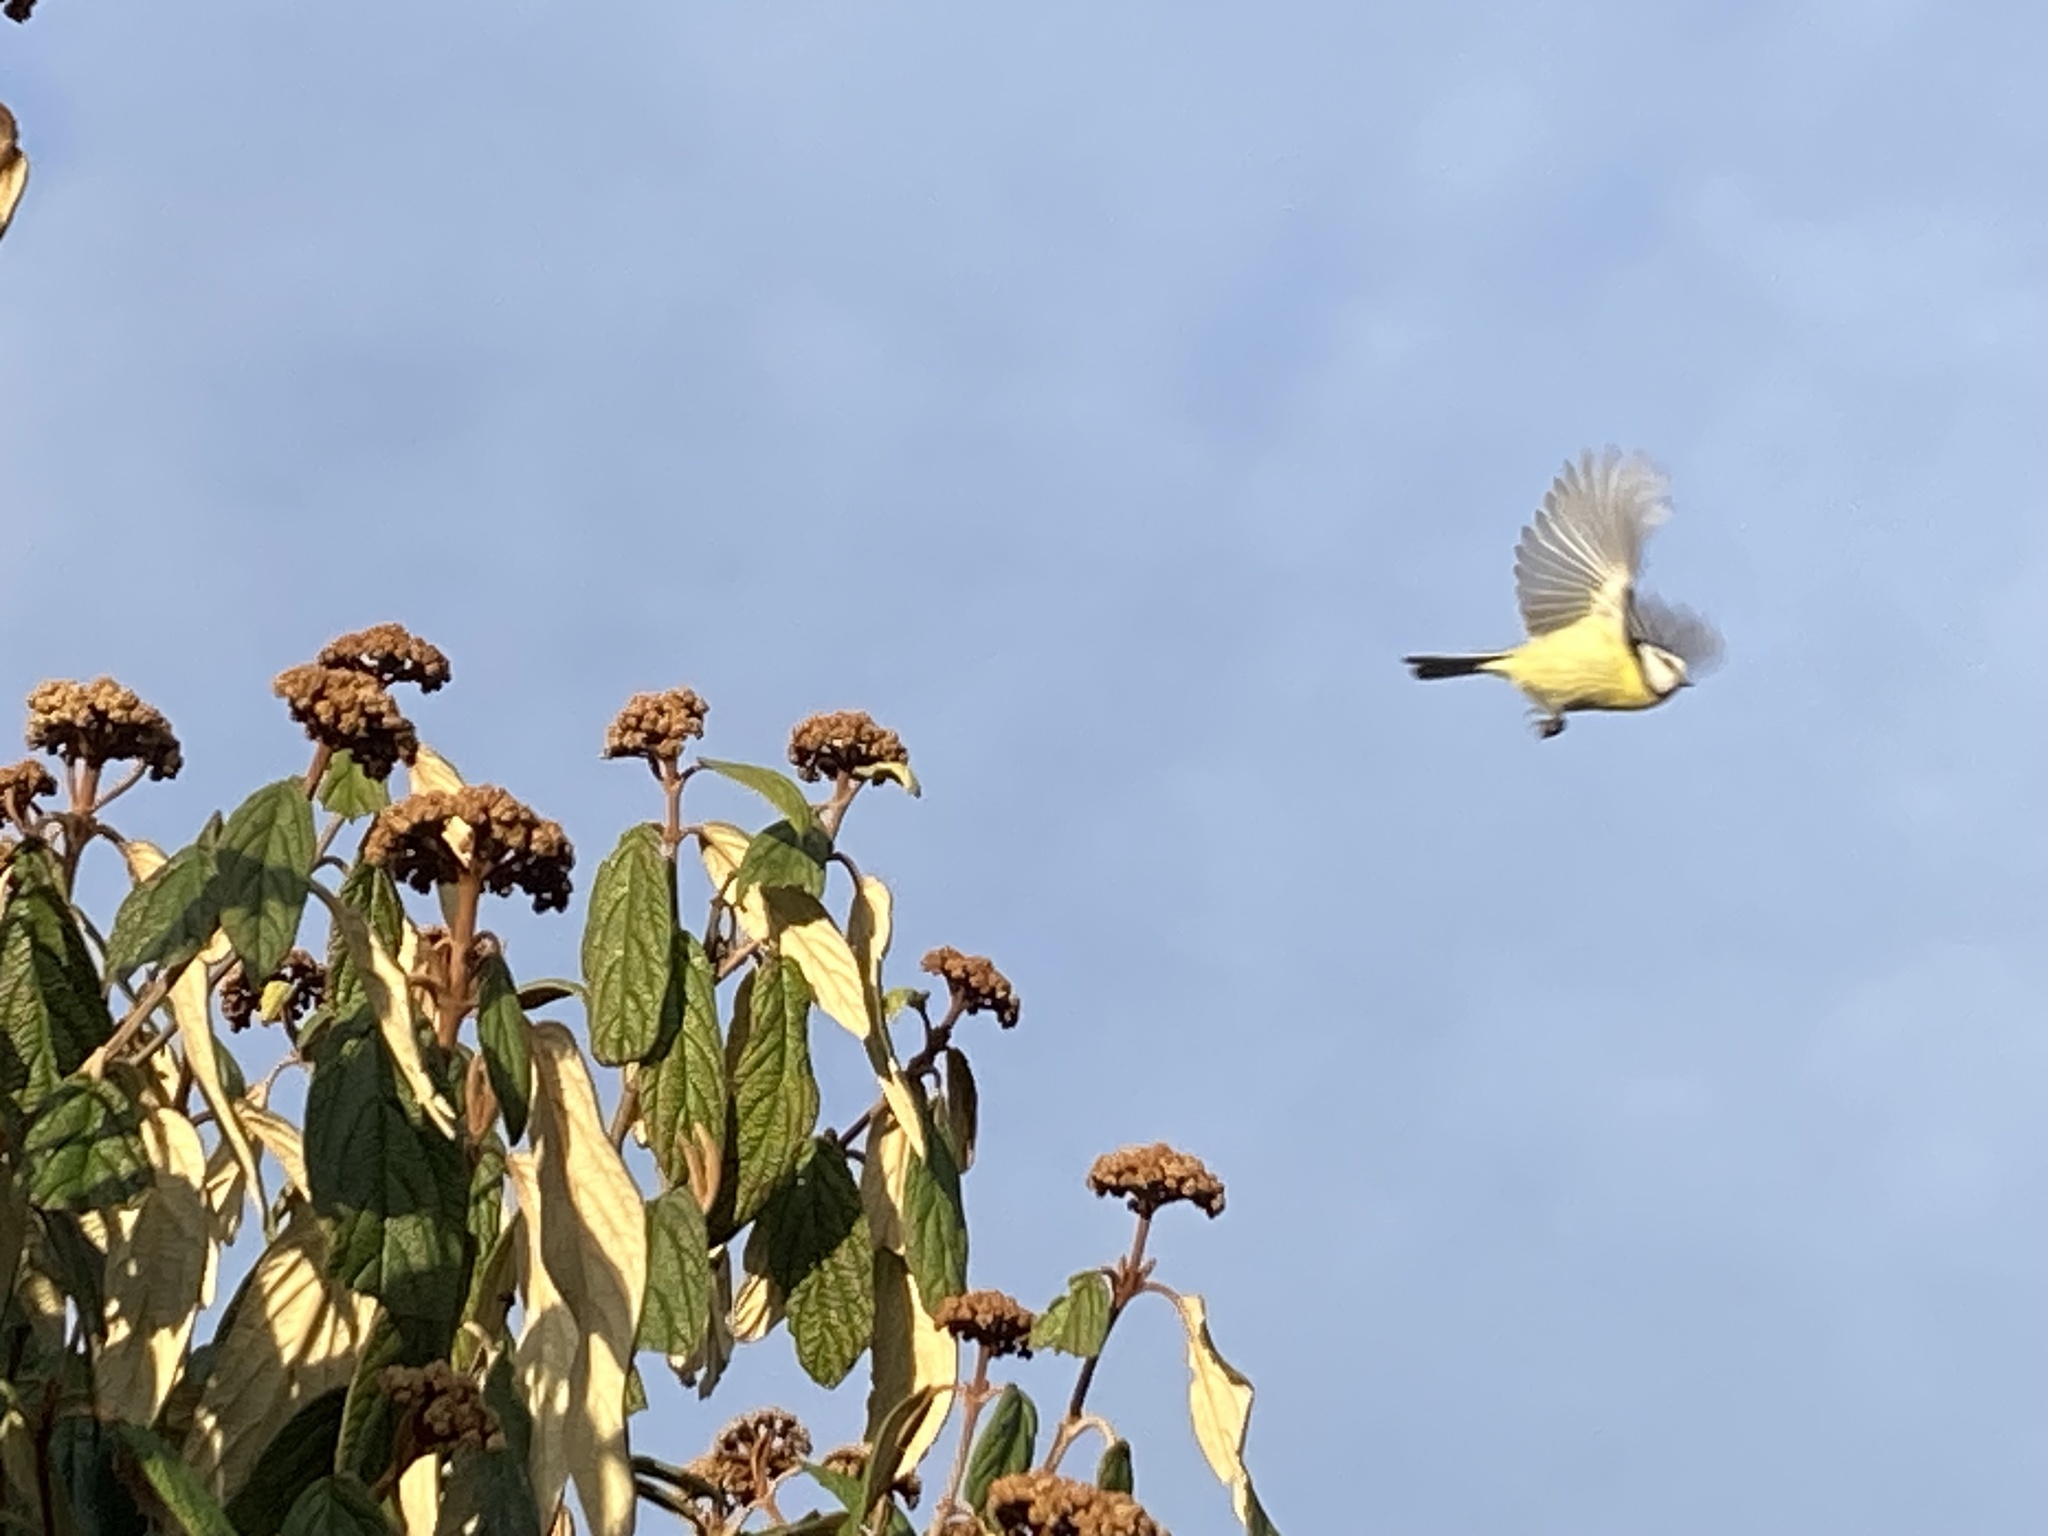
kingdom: Animalia
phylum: Chordata
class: Aves
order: Passeriformes
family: Paridae
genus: Cyanistes
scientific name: Cyanistes caeruleus
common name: Eurasian blue tit
